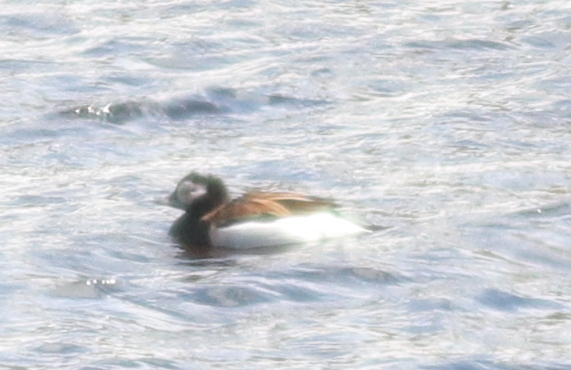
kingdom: Animalia
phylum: Chordata
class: Aves
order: Anseriformes
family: Anatidae
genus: Clangula
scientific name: Clangula hyemalis
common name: Long-tailed duck
